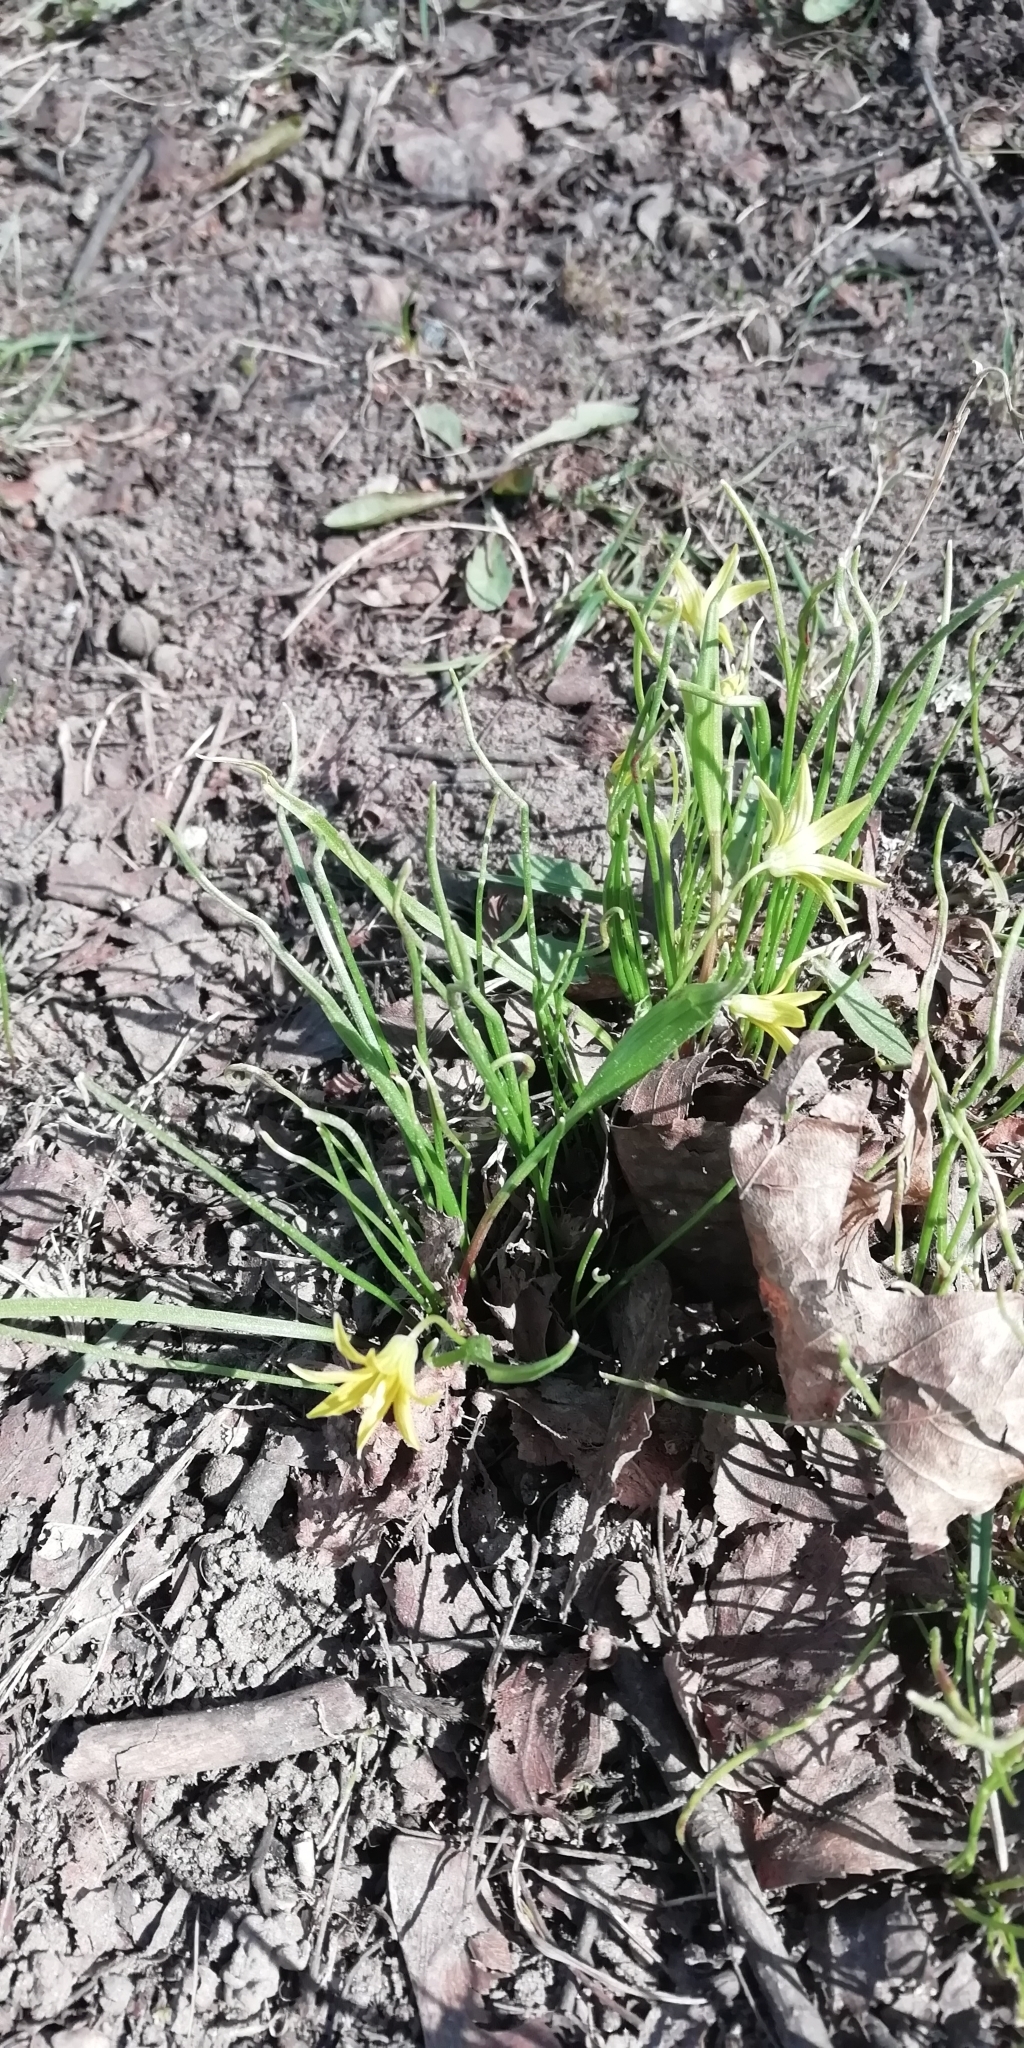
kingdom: Plantae
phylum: Tracheophyta
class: Liliopsida
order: Liliales
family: Liliaceae
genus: Gagea
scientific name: Gagea minima
